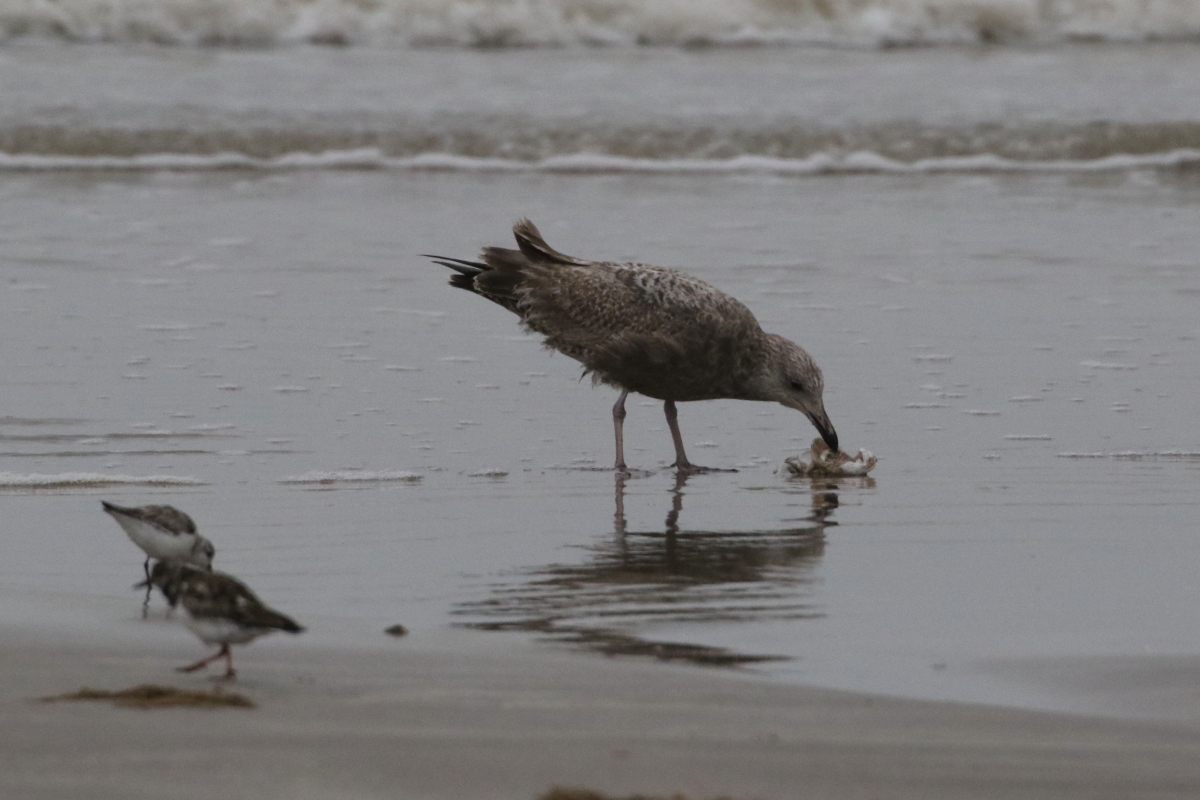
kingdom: Animalia
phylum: Chordata
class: Aves
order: Charadriiformes
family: Laridae
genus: Larus
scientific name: Larus argentatus
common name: Herring gull
